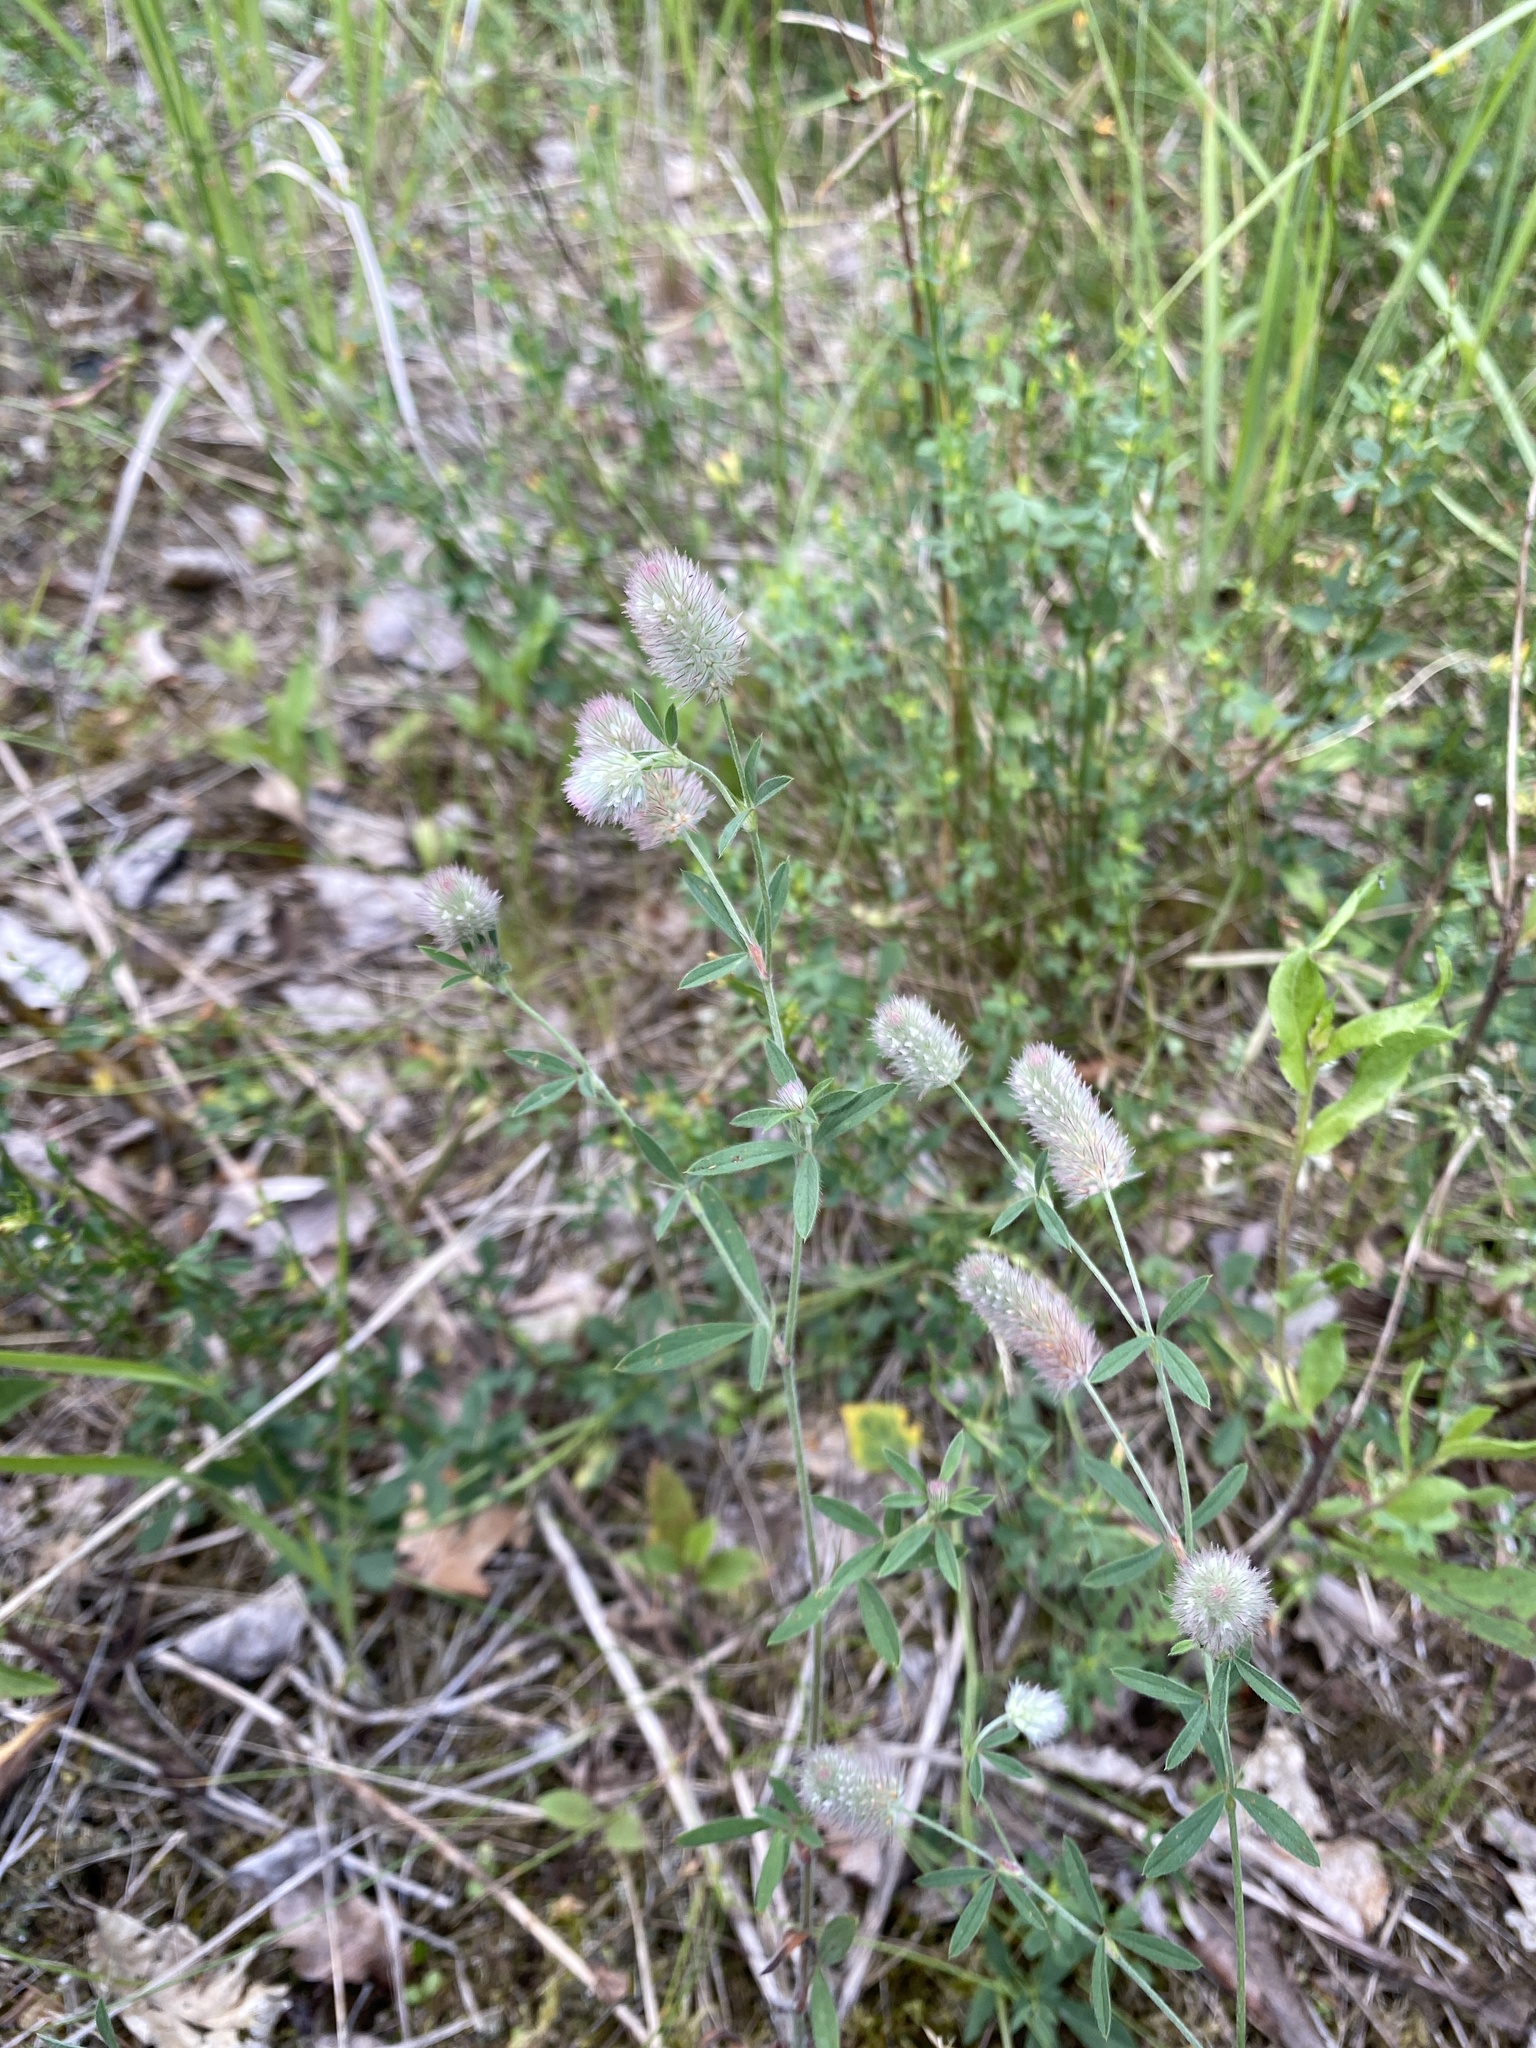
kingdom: Plantae
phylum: Tracheophyta
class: Magnoliopsida
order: Fabales
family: Fabaceae
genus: Trifolium
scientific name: Trifolium arvense
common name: Hare's-foot clover
